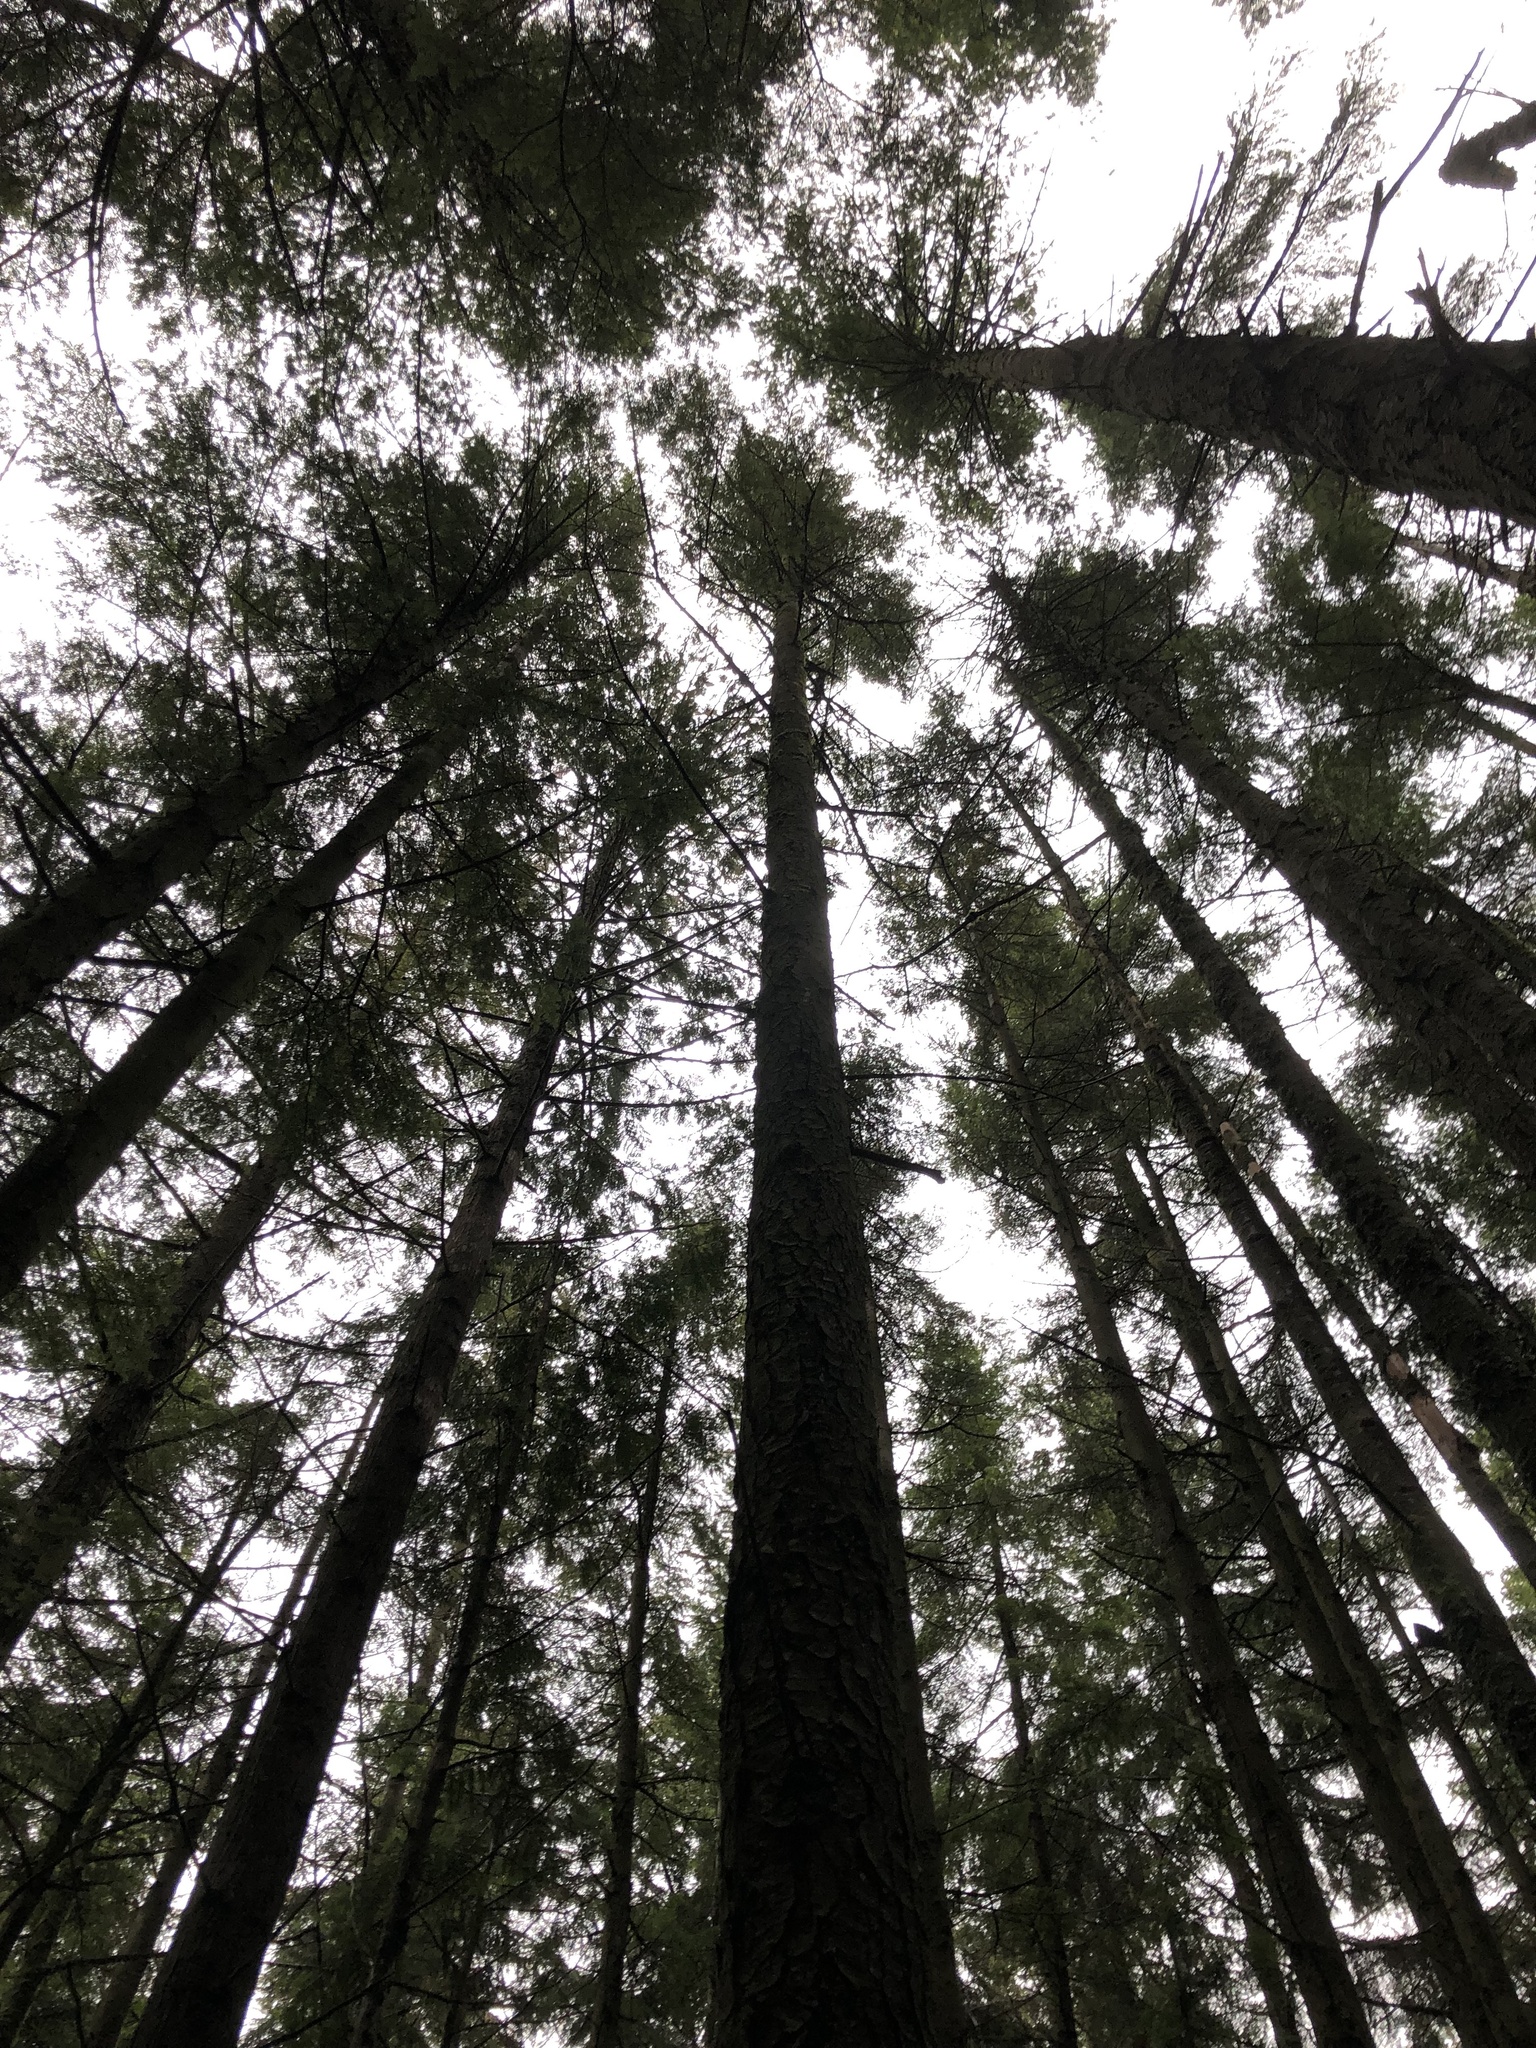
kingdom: Plantae
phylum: Tracheophyta
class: Pinopsida
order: Pinales
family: Pinaceae
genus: Tsuga
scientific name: Tsuga heterophylla
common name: Western hemlock
